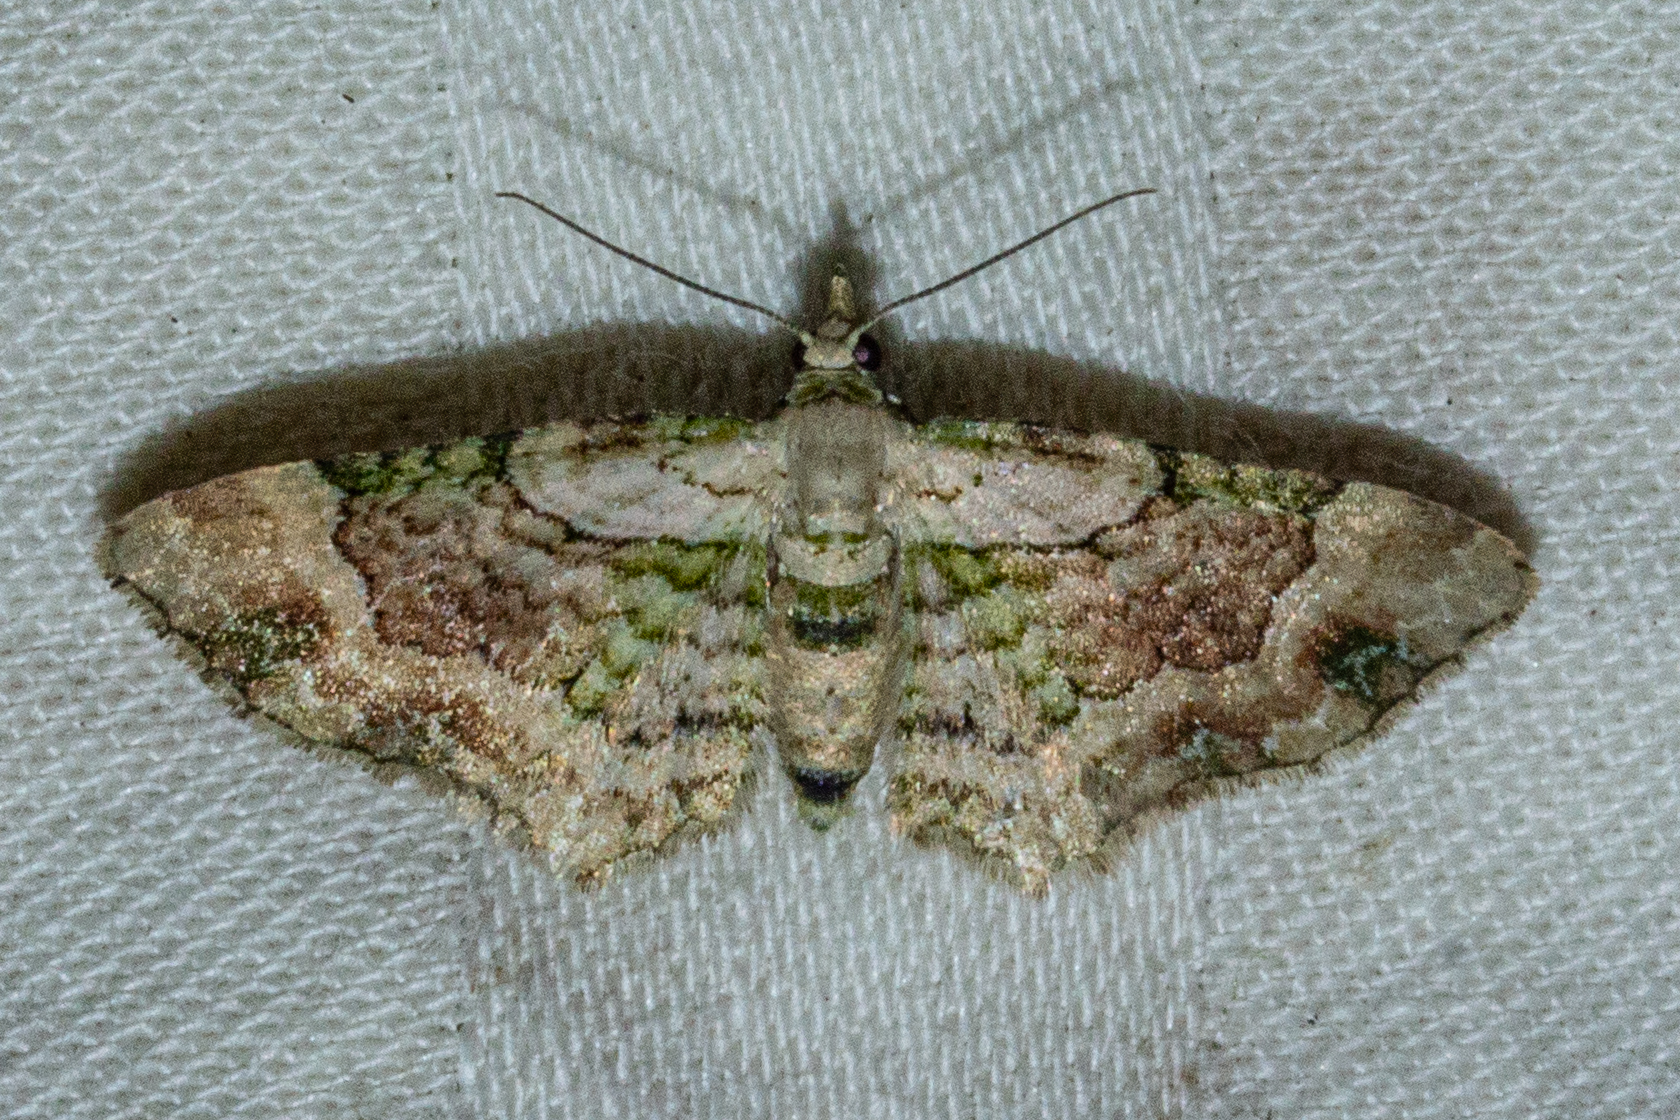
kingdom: Animalia
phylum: Arthropoda
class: Insecta
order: Lepidoptera
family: Geometridae
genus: Chloroclystis
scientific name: Chloroclystis
